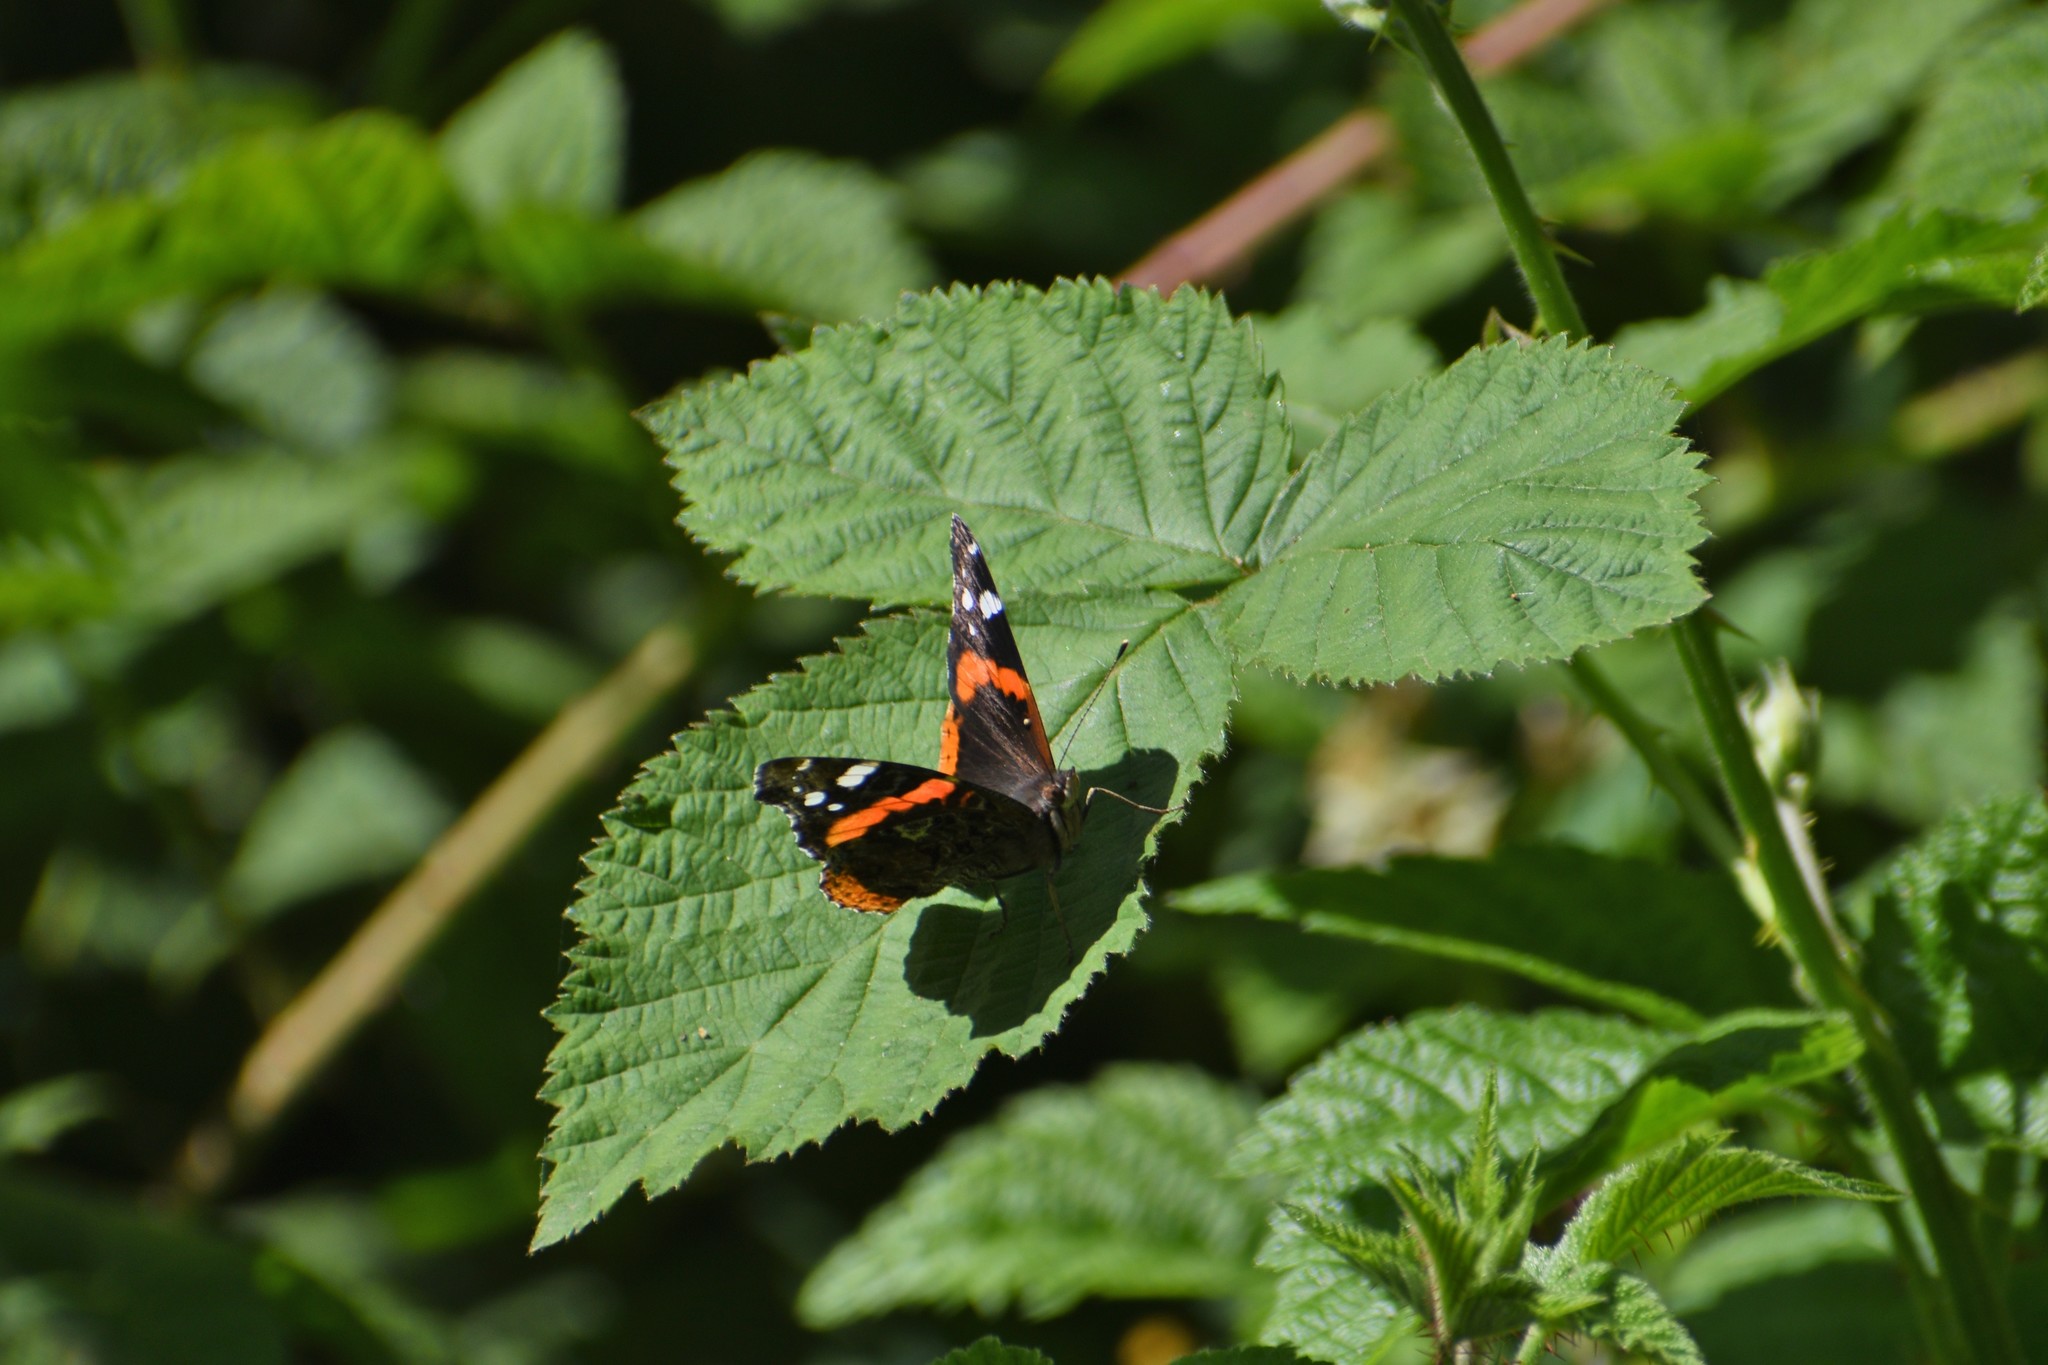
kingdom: Animalia
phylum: Arthropoda
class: Insecta
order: Lepidoptera
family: Nymphalidae
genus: Vanessa
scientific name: Vanessa atalanta
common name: Red admiral
